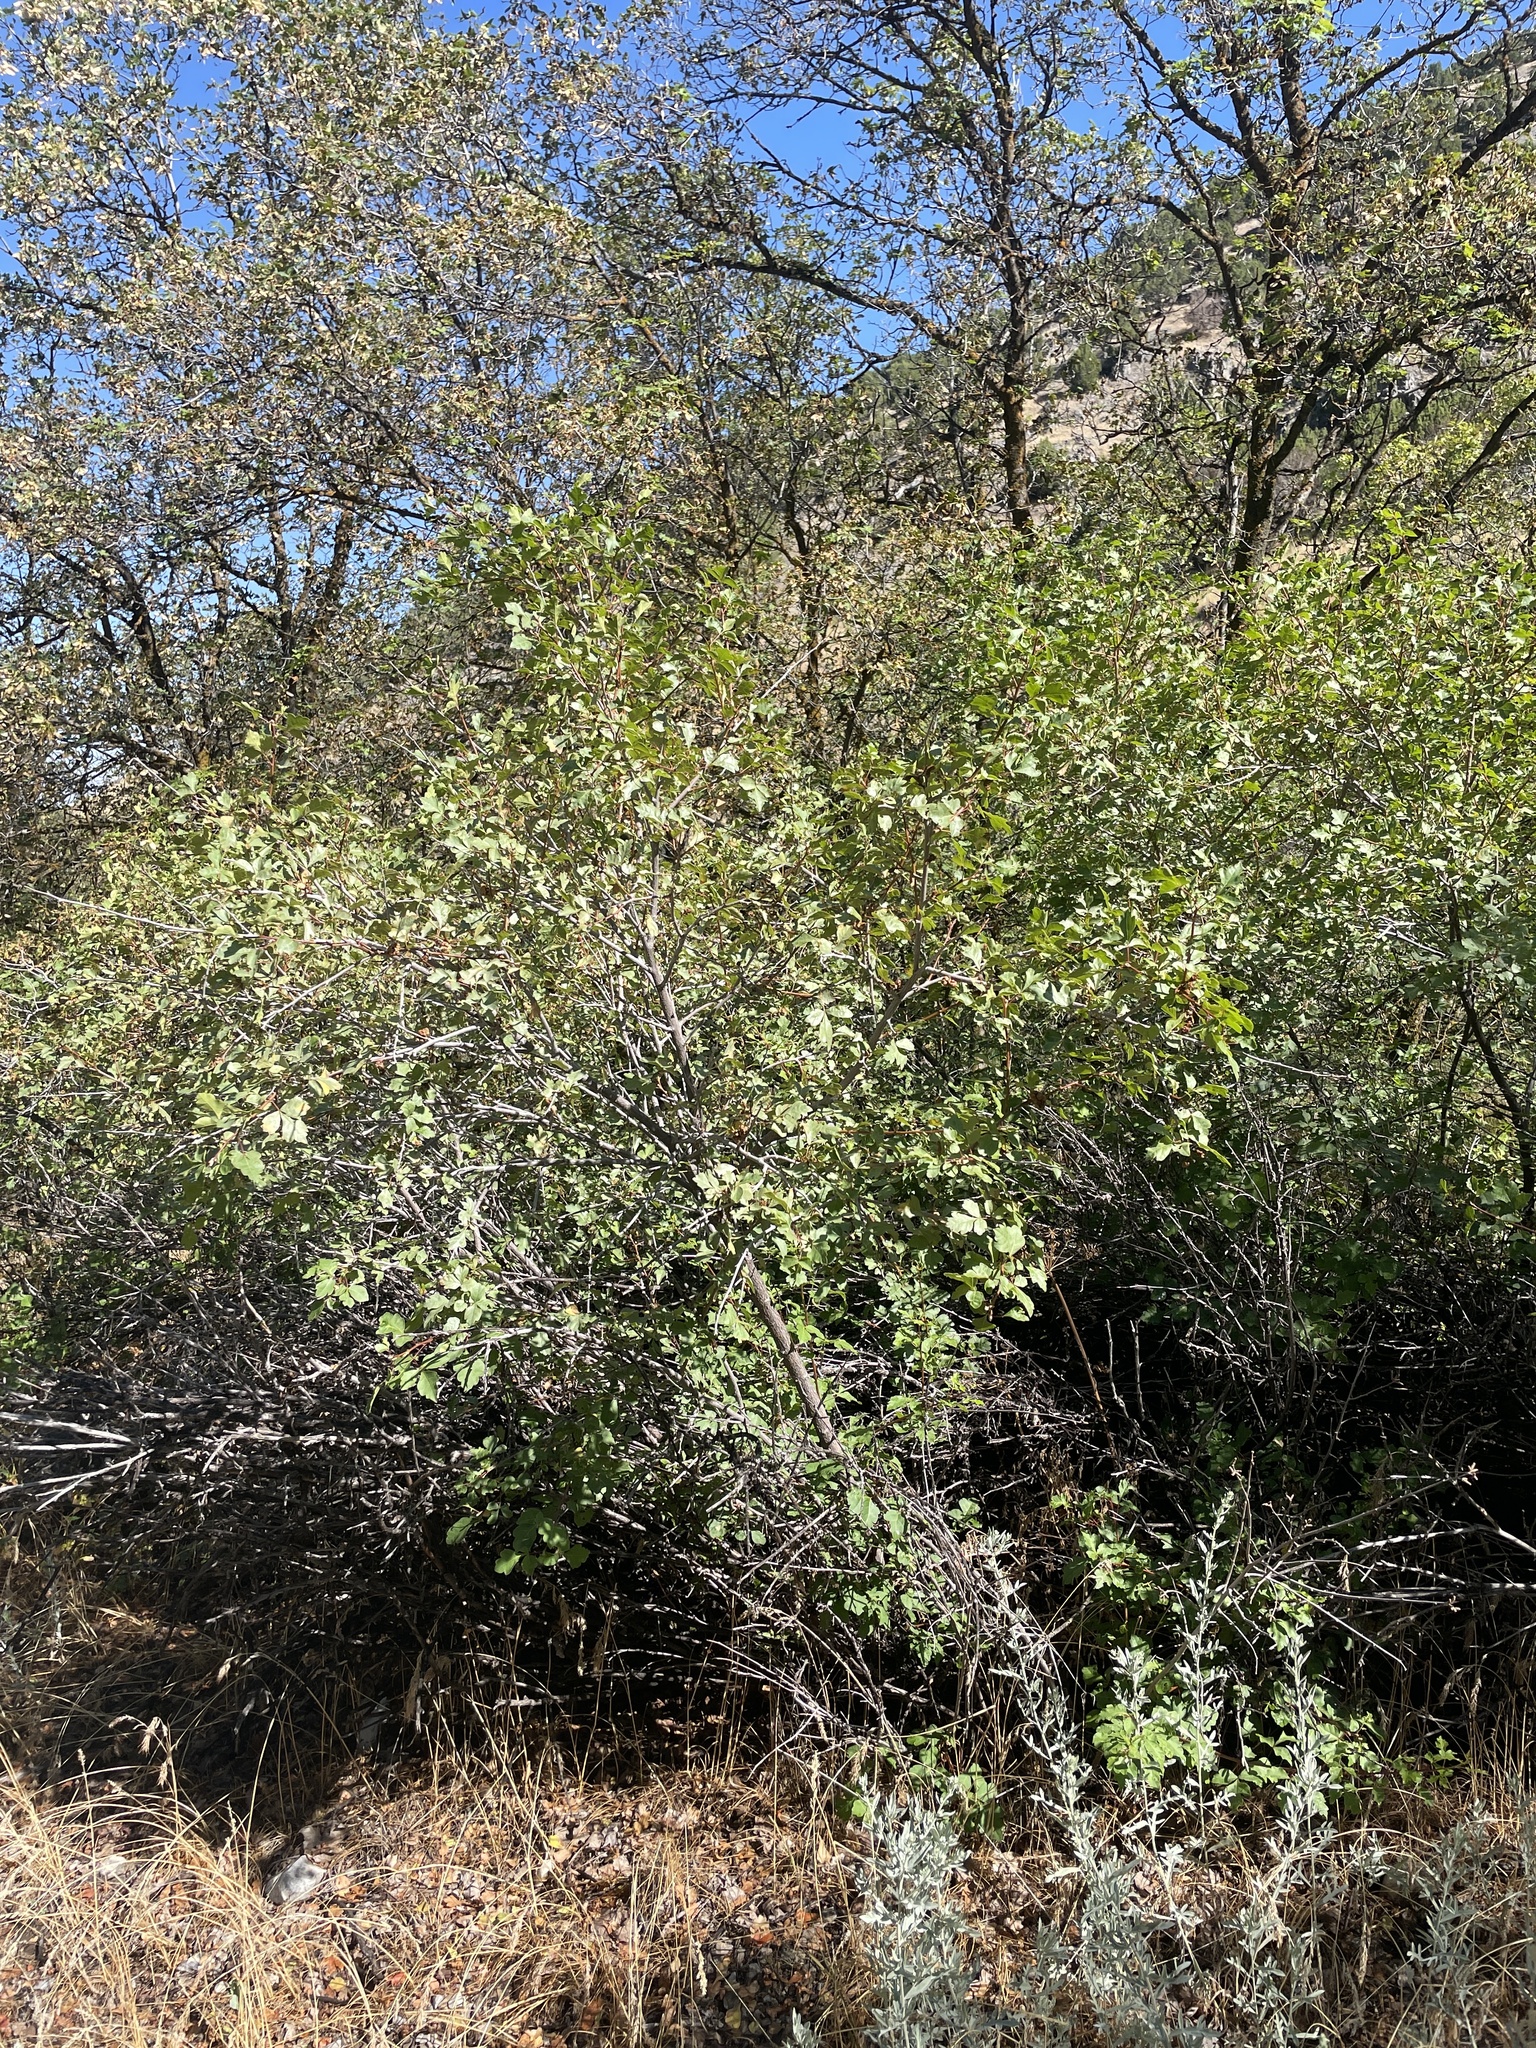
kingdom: Plantae
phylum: Tracheophyta
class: Magnoliopsida
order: Sapindales
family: Anacardiaceae
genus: Rhus
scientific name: Rhus trilobata
